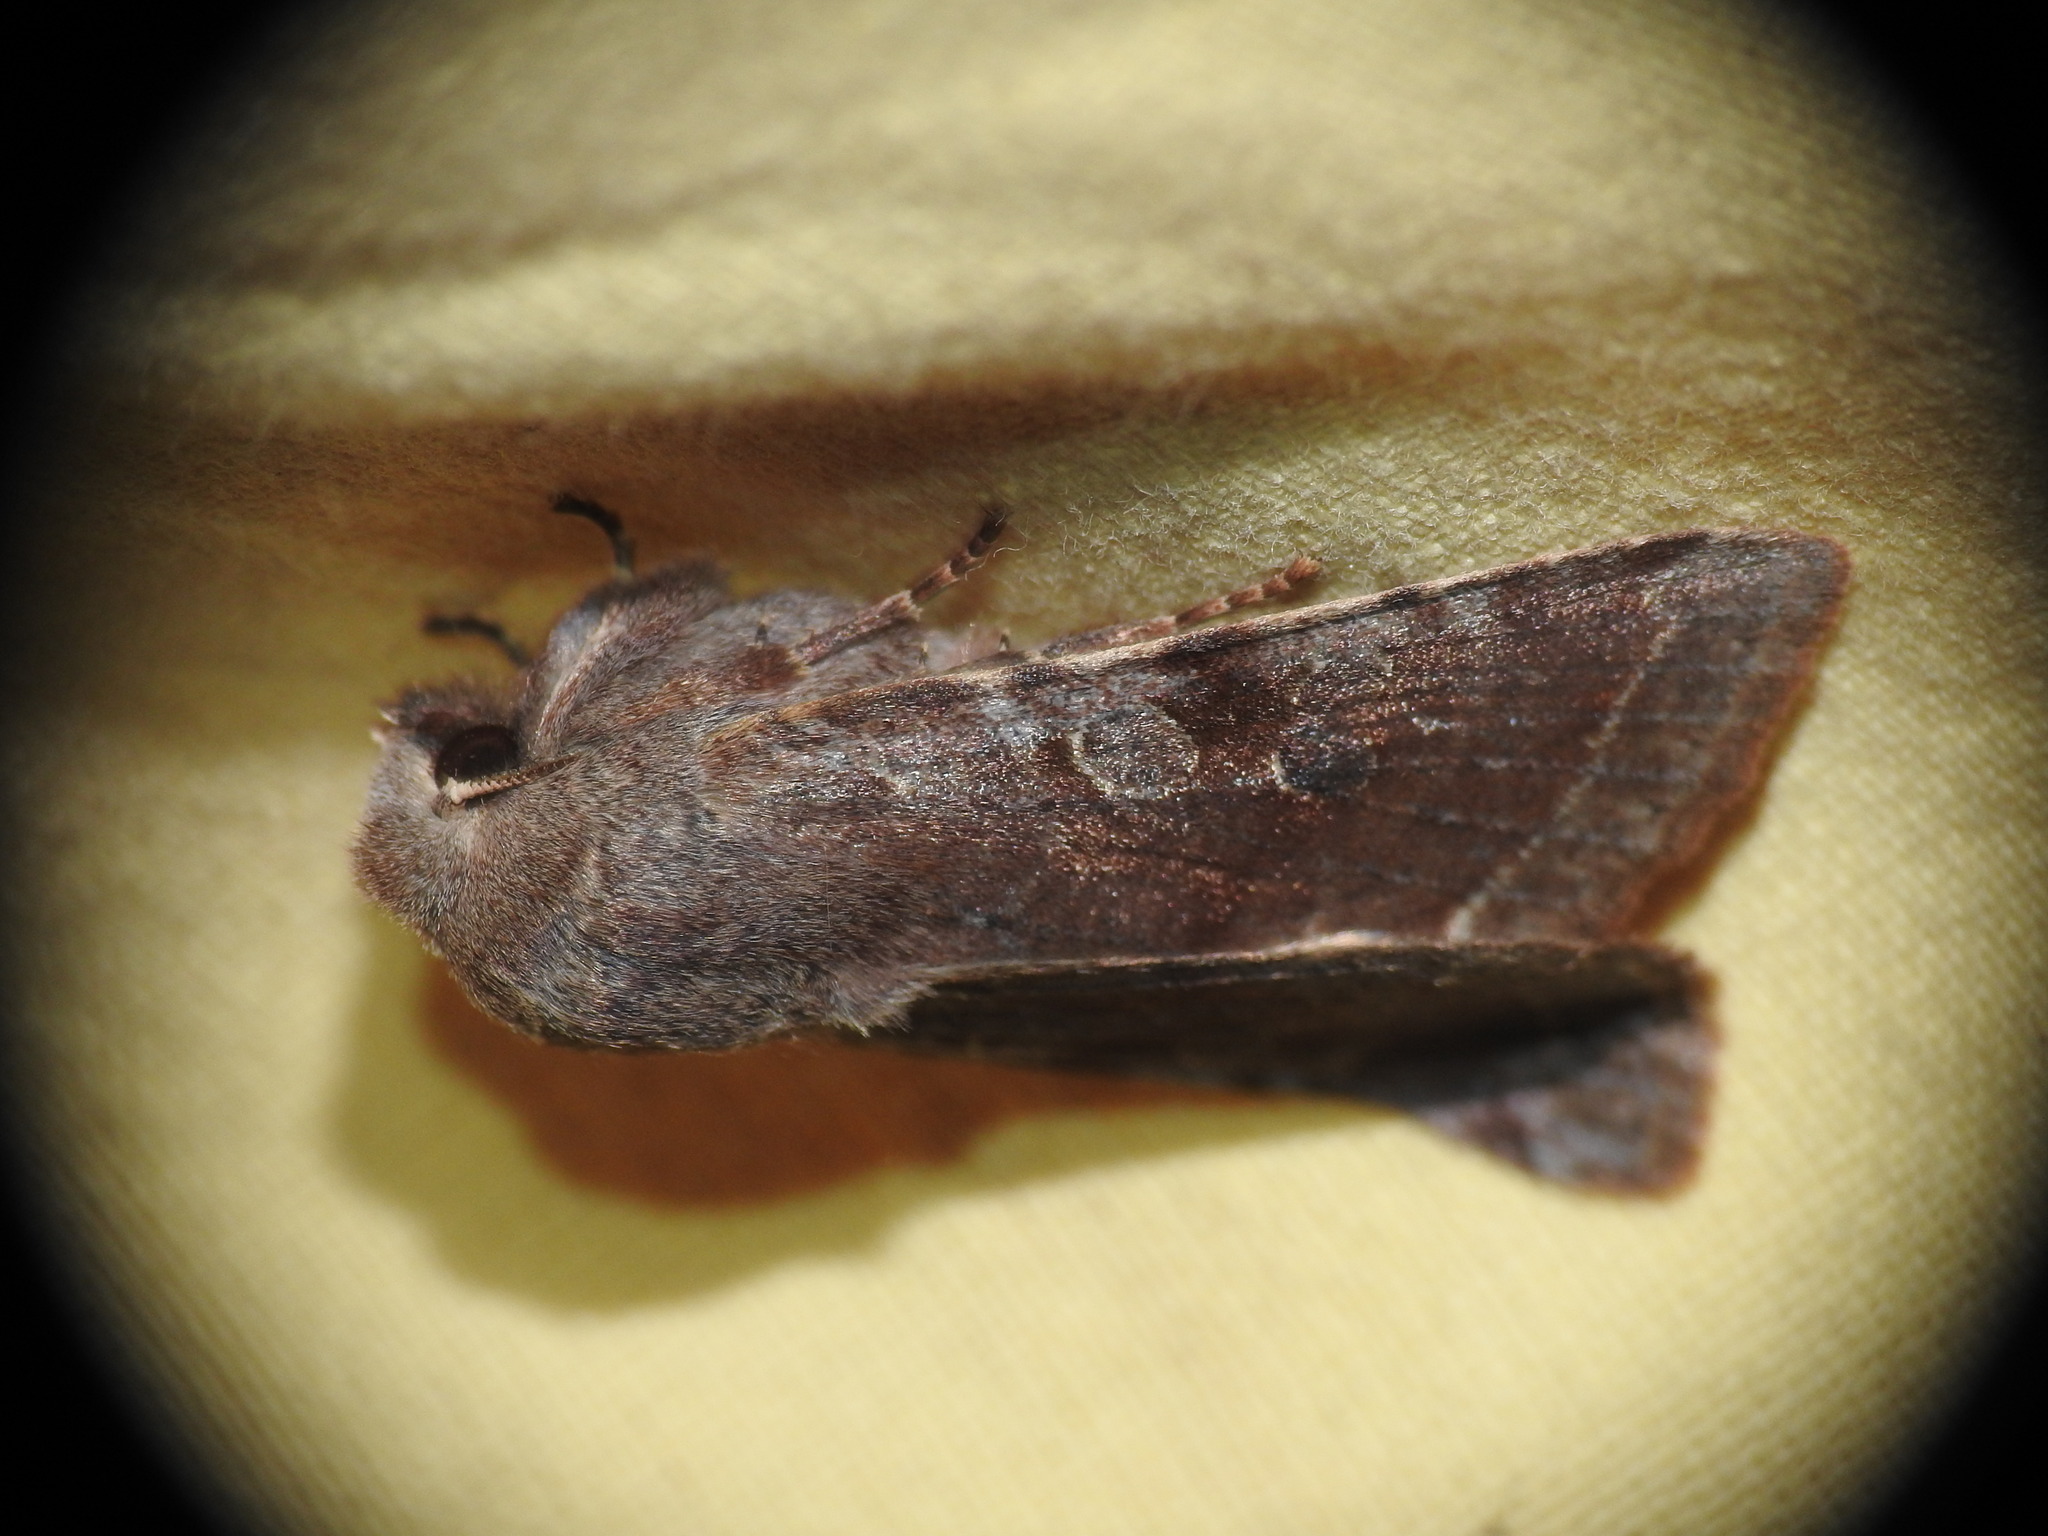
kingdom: Animalia
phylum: Arthropoda
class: Insecta
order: Lepidoptera
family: Noctuidae
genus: Orthosia
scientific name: Orthosia incerta
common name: Clouded drab
